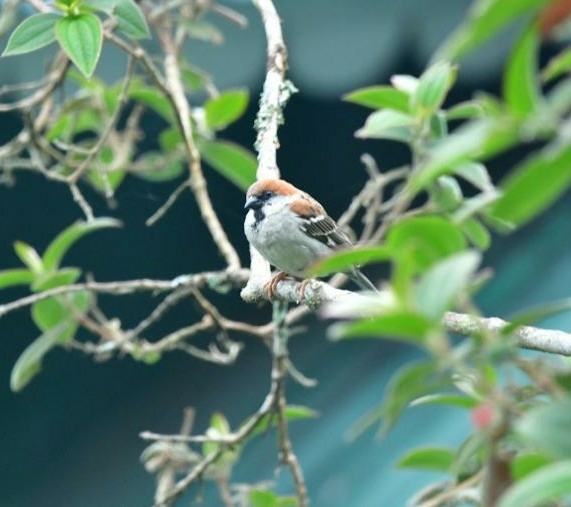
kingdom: Animalia
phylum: Chordata
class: Aves
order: Passeriformes
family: Passeridae
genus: Passer
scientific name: Passer cinnamomeus
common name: Russet sparrow
